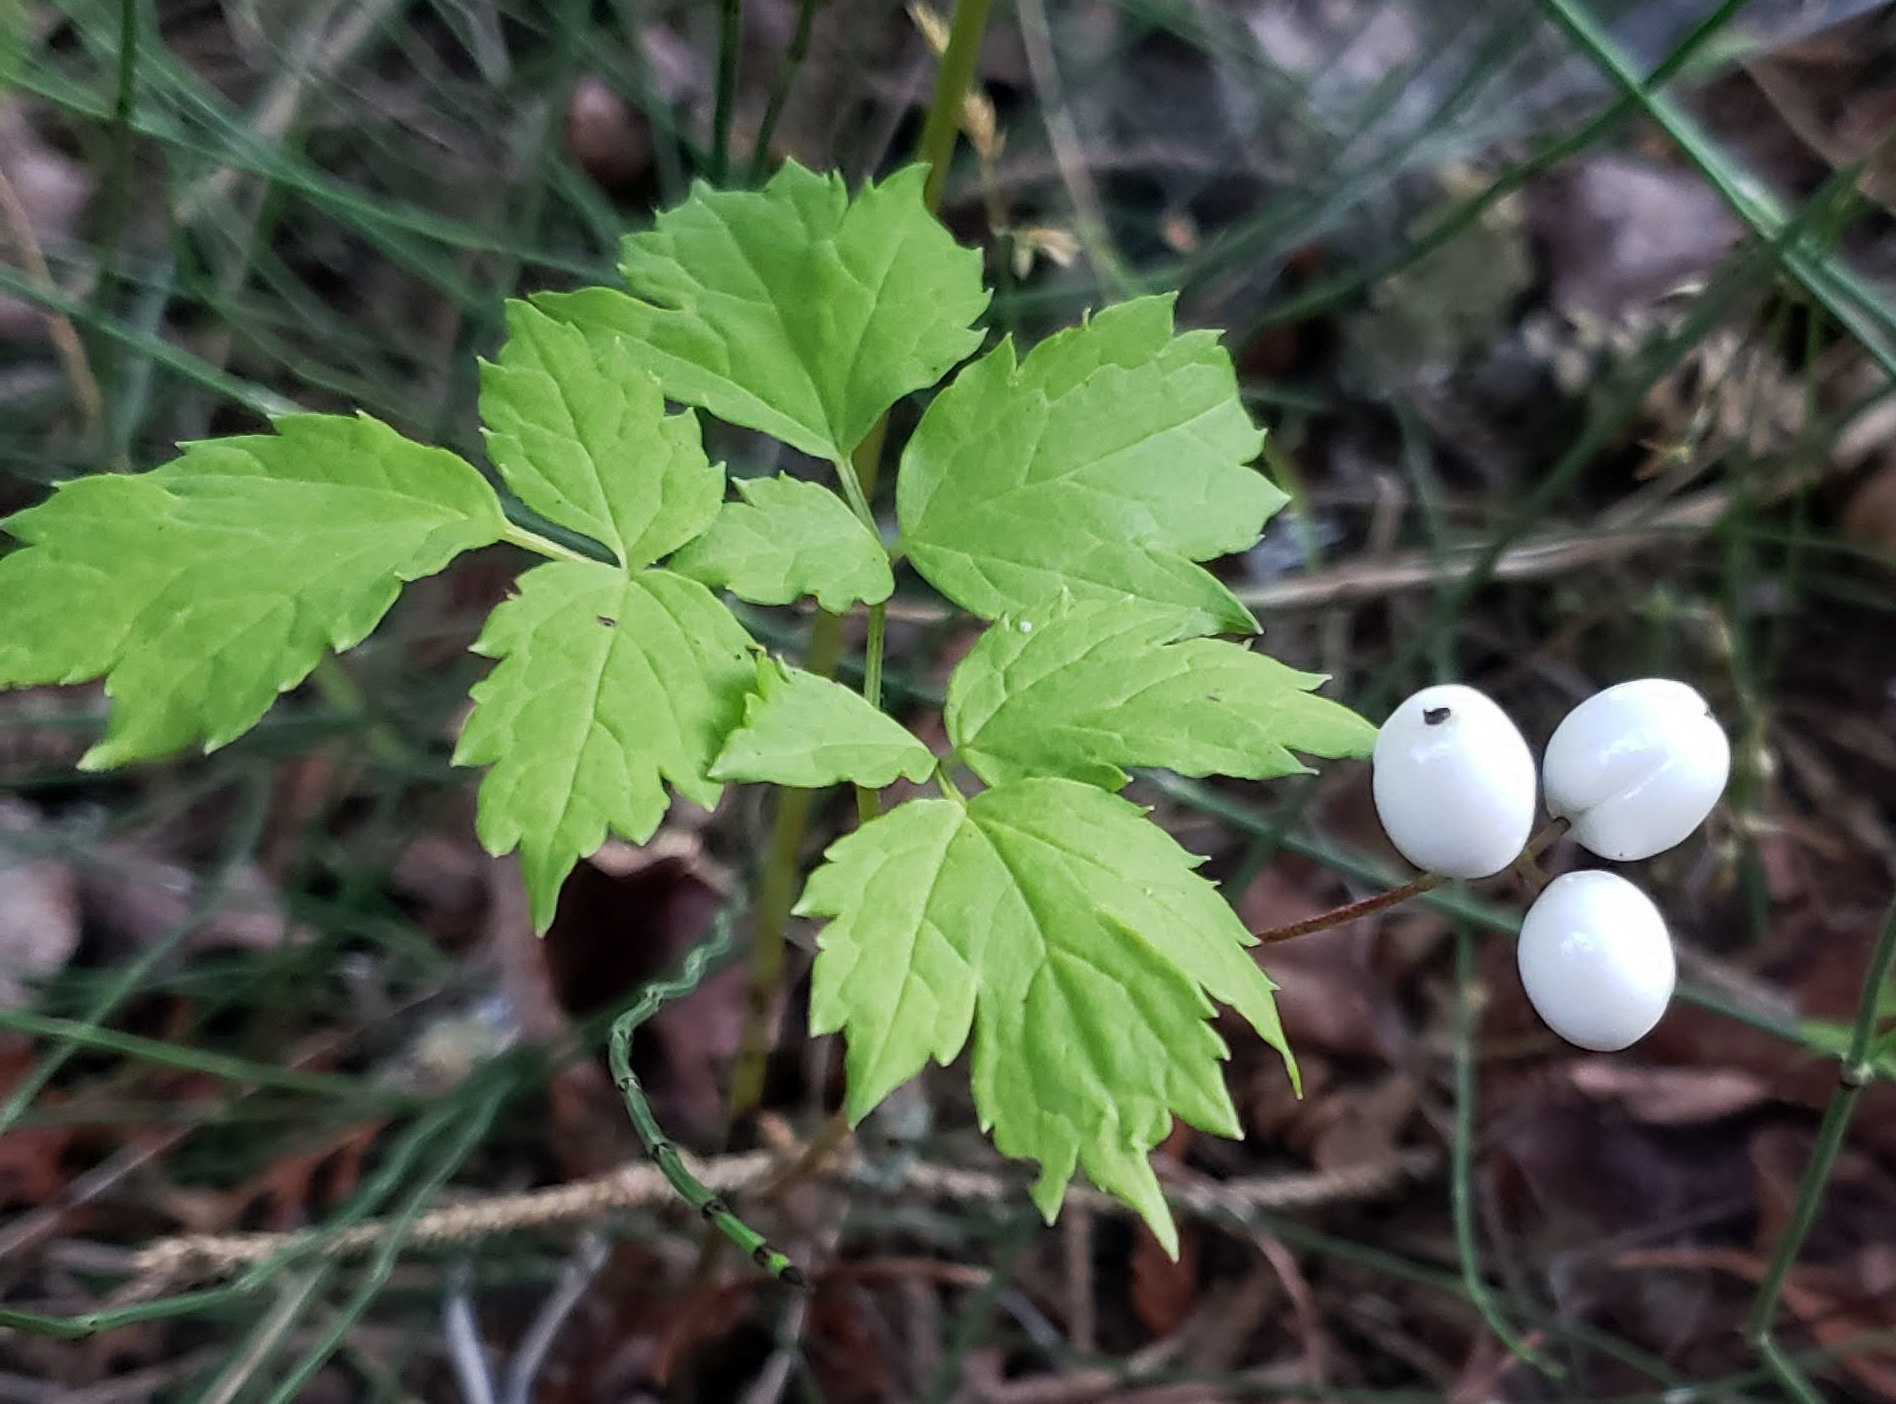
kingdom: Plantae
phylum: Tracheophyta
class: Magnoliopsida
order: Ranunculales
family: Ranunculaceae
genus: Actaea
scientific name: Actaea rubra
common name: Red baneberry
